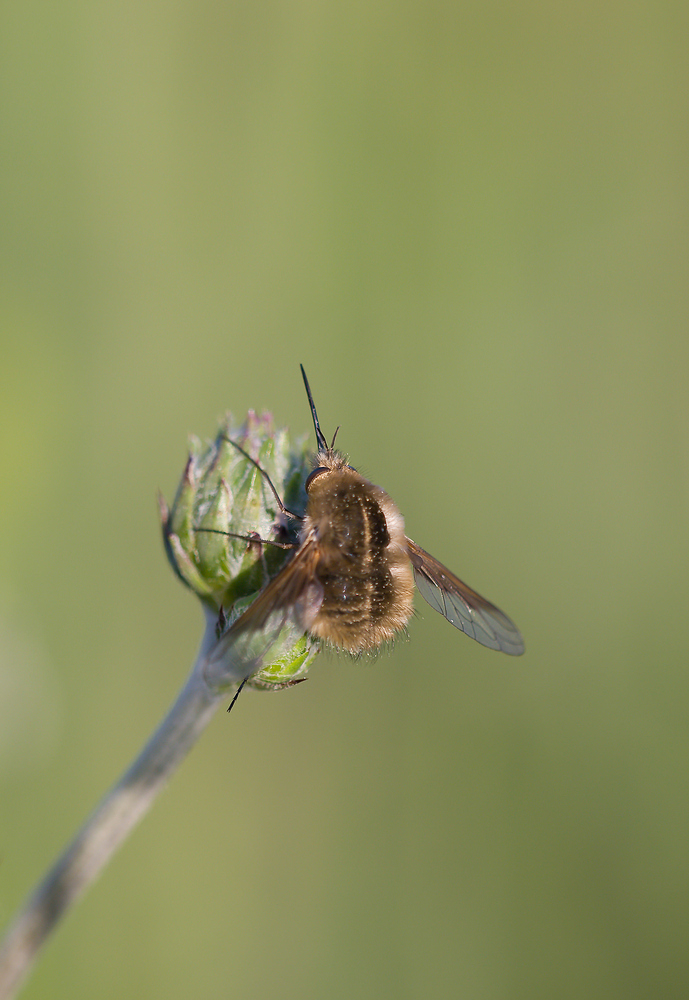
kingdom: Animalia
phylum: Arthropoda
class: Insecta
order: Diptera
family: Bombyliidae
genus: Bombylius
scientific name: Bombylius analis
